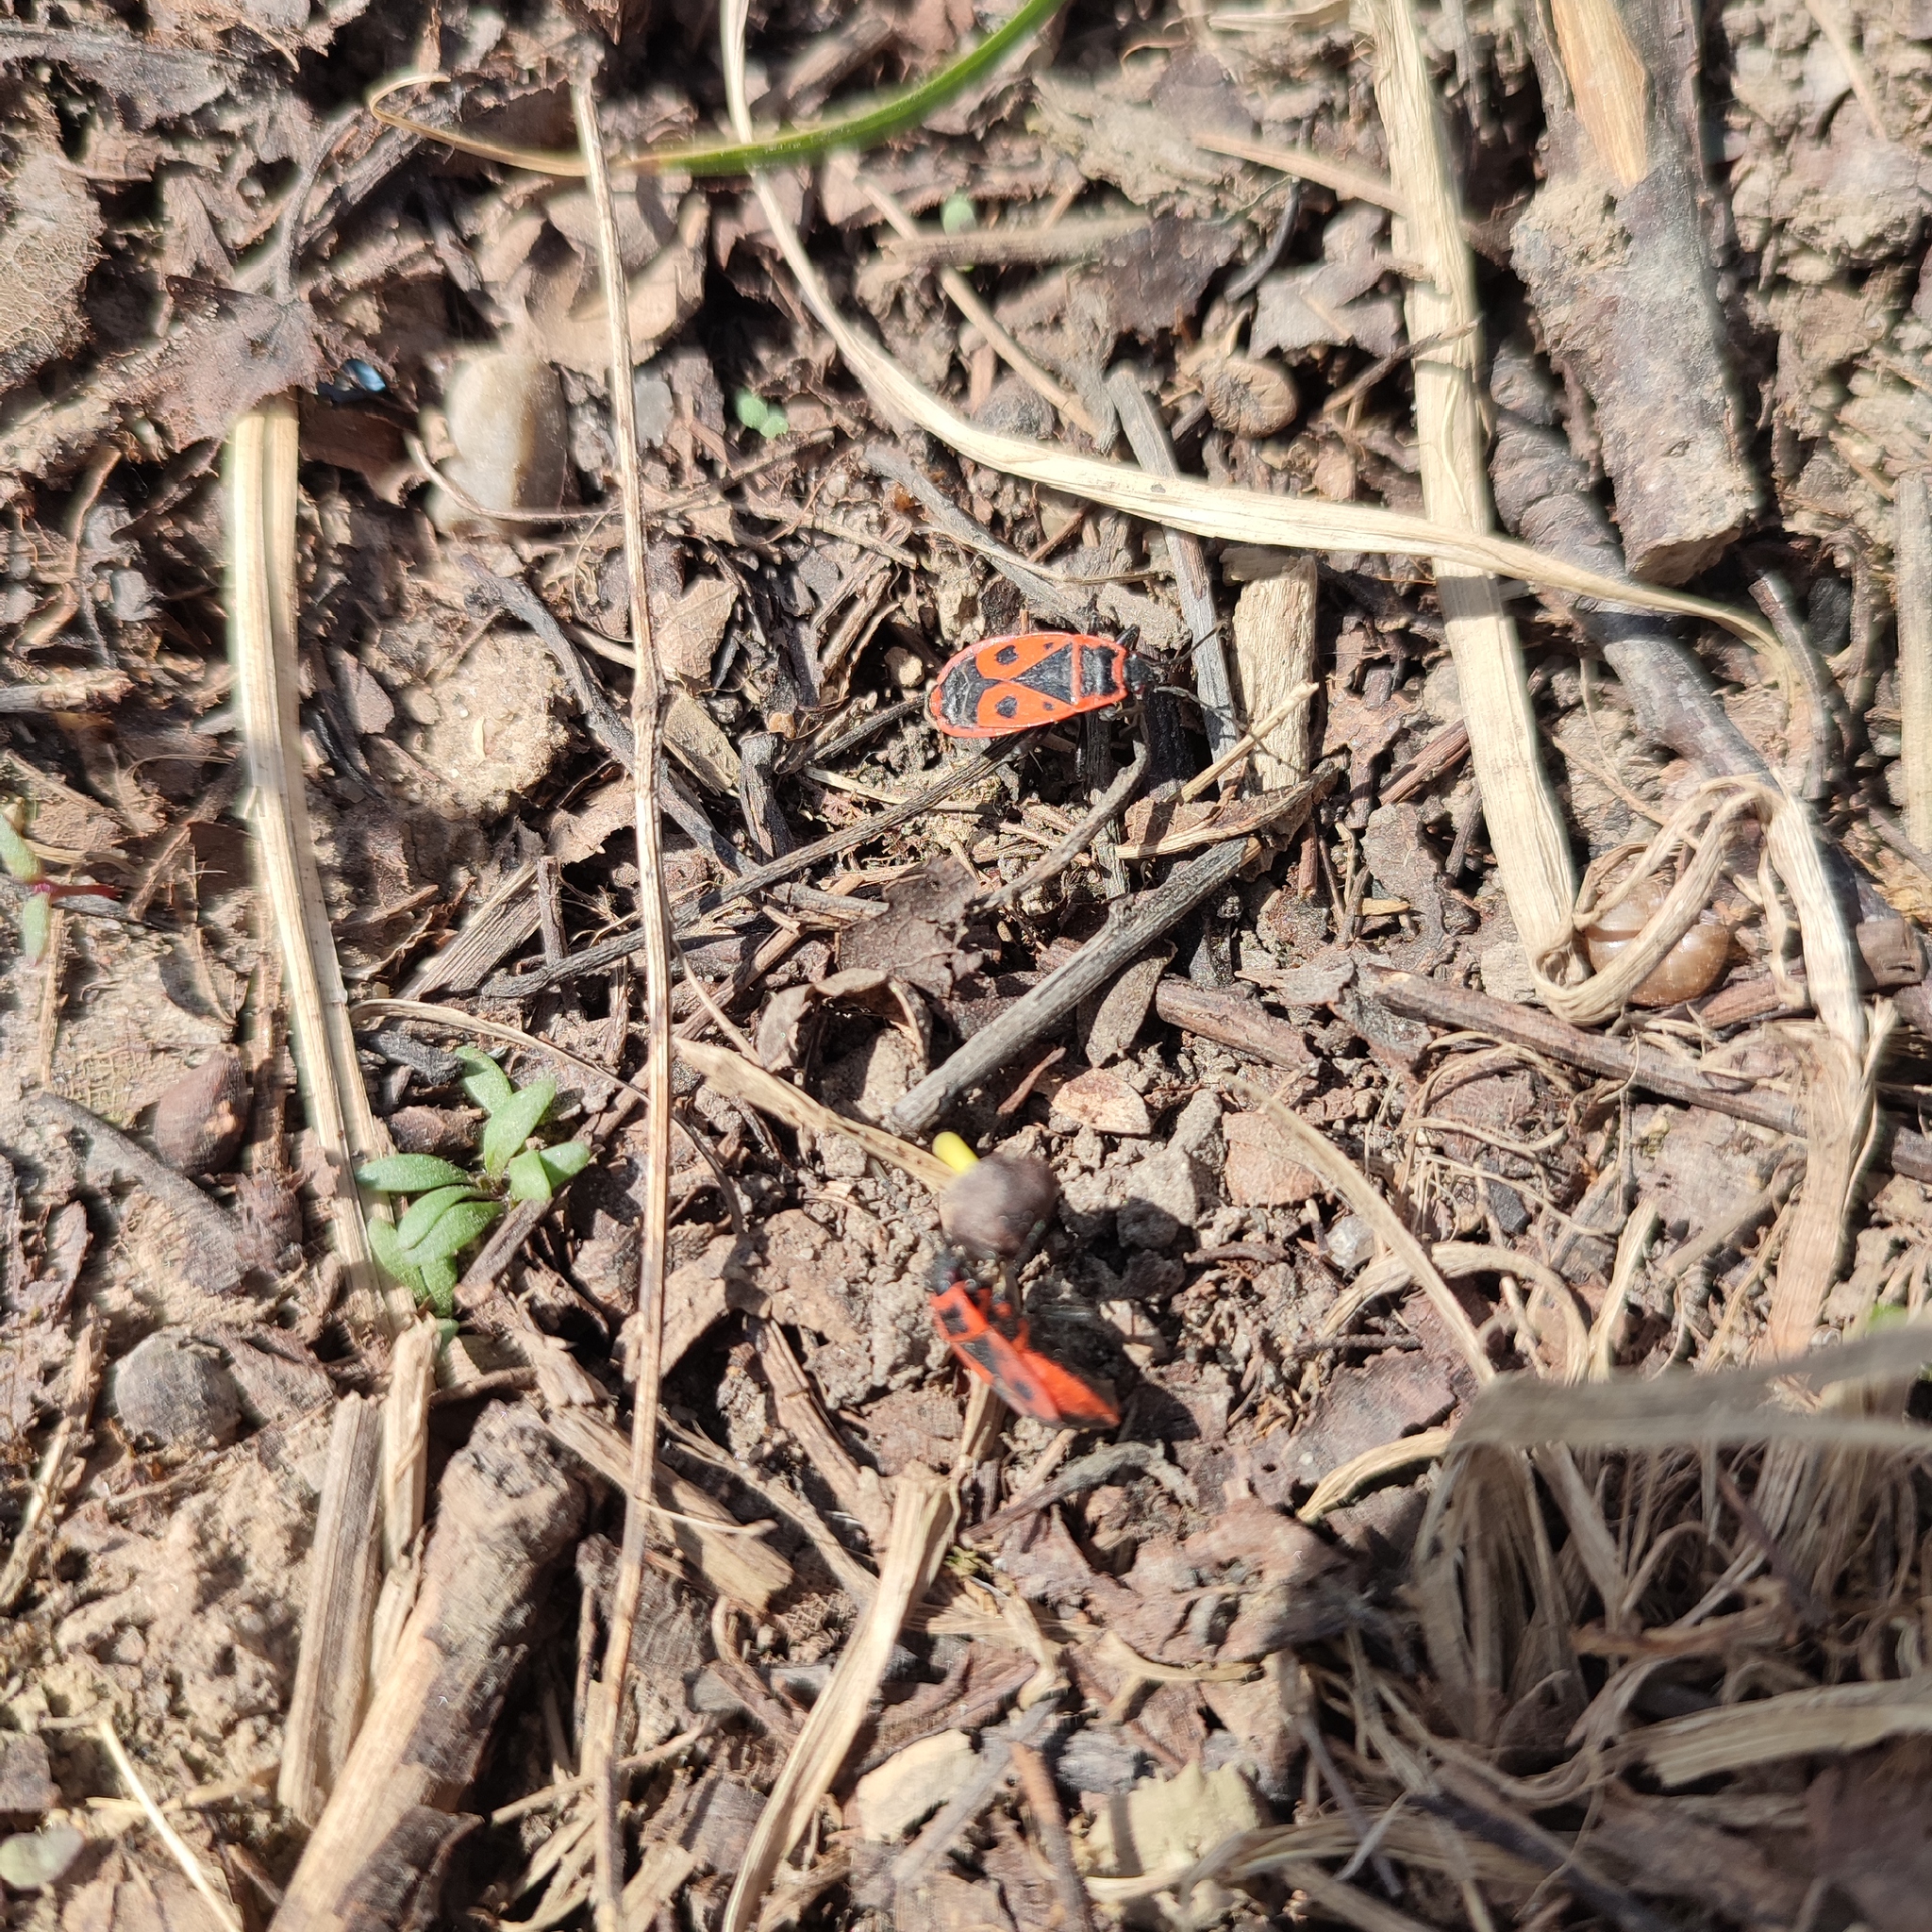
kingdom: Animalia
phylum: Arthropoda
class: Insecta
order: Hemiptera
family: Pyrrhocoridae
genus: Pyrrhocoris
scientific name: Pyrrhocoris apterus
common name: Firebug
